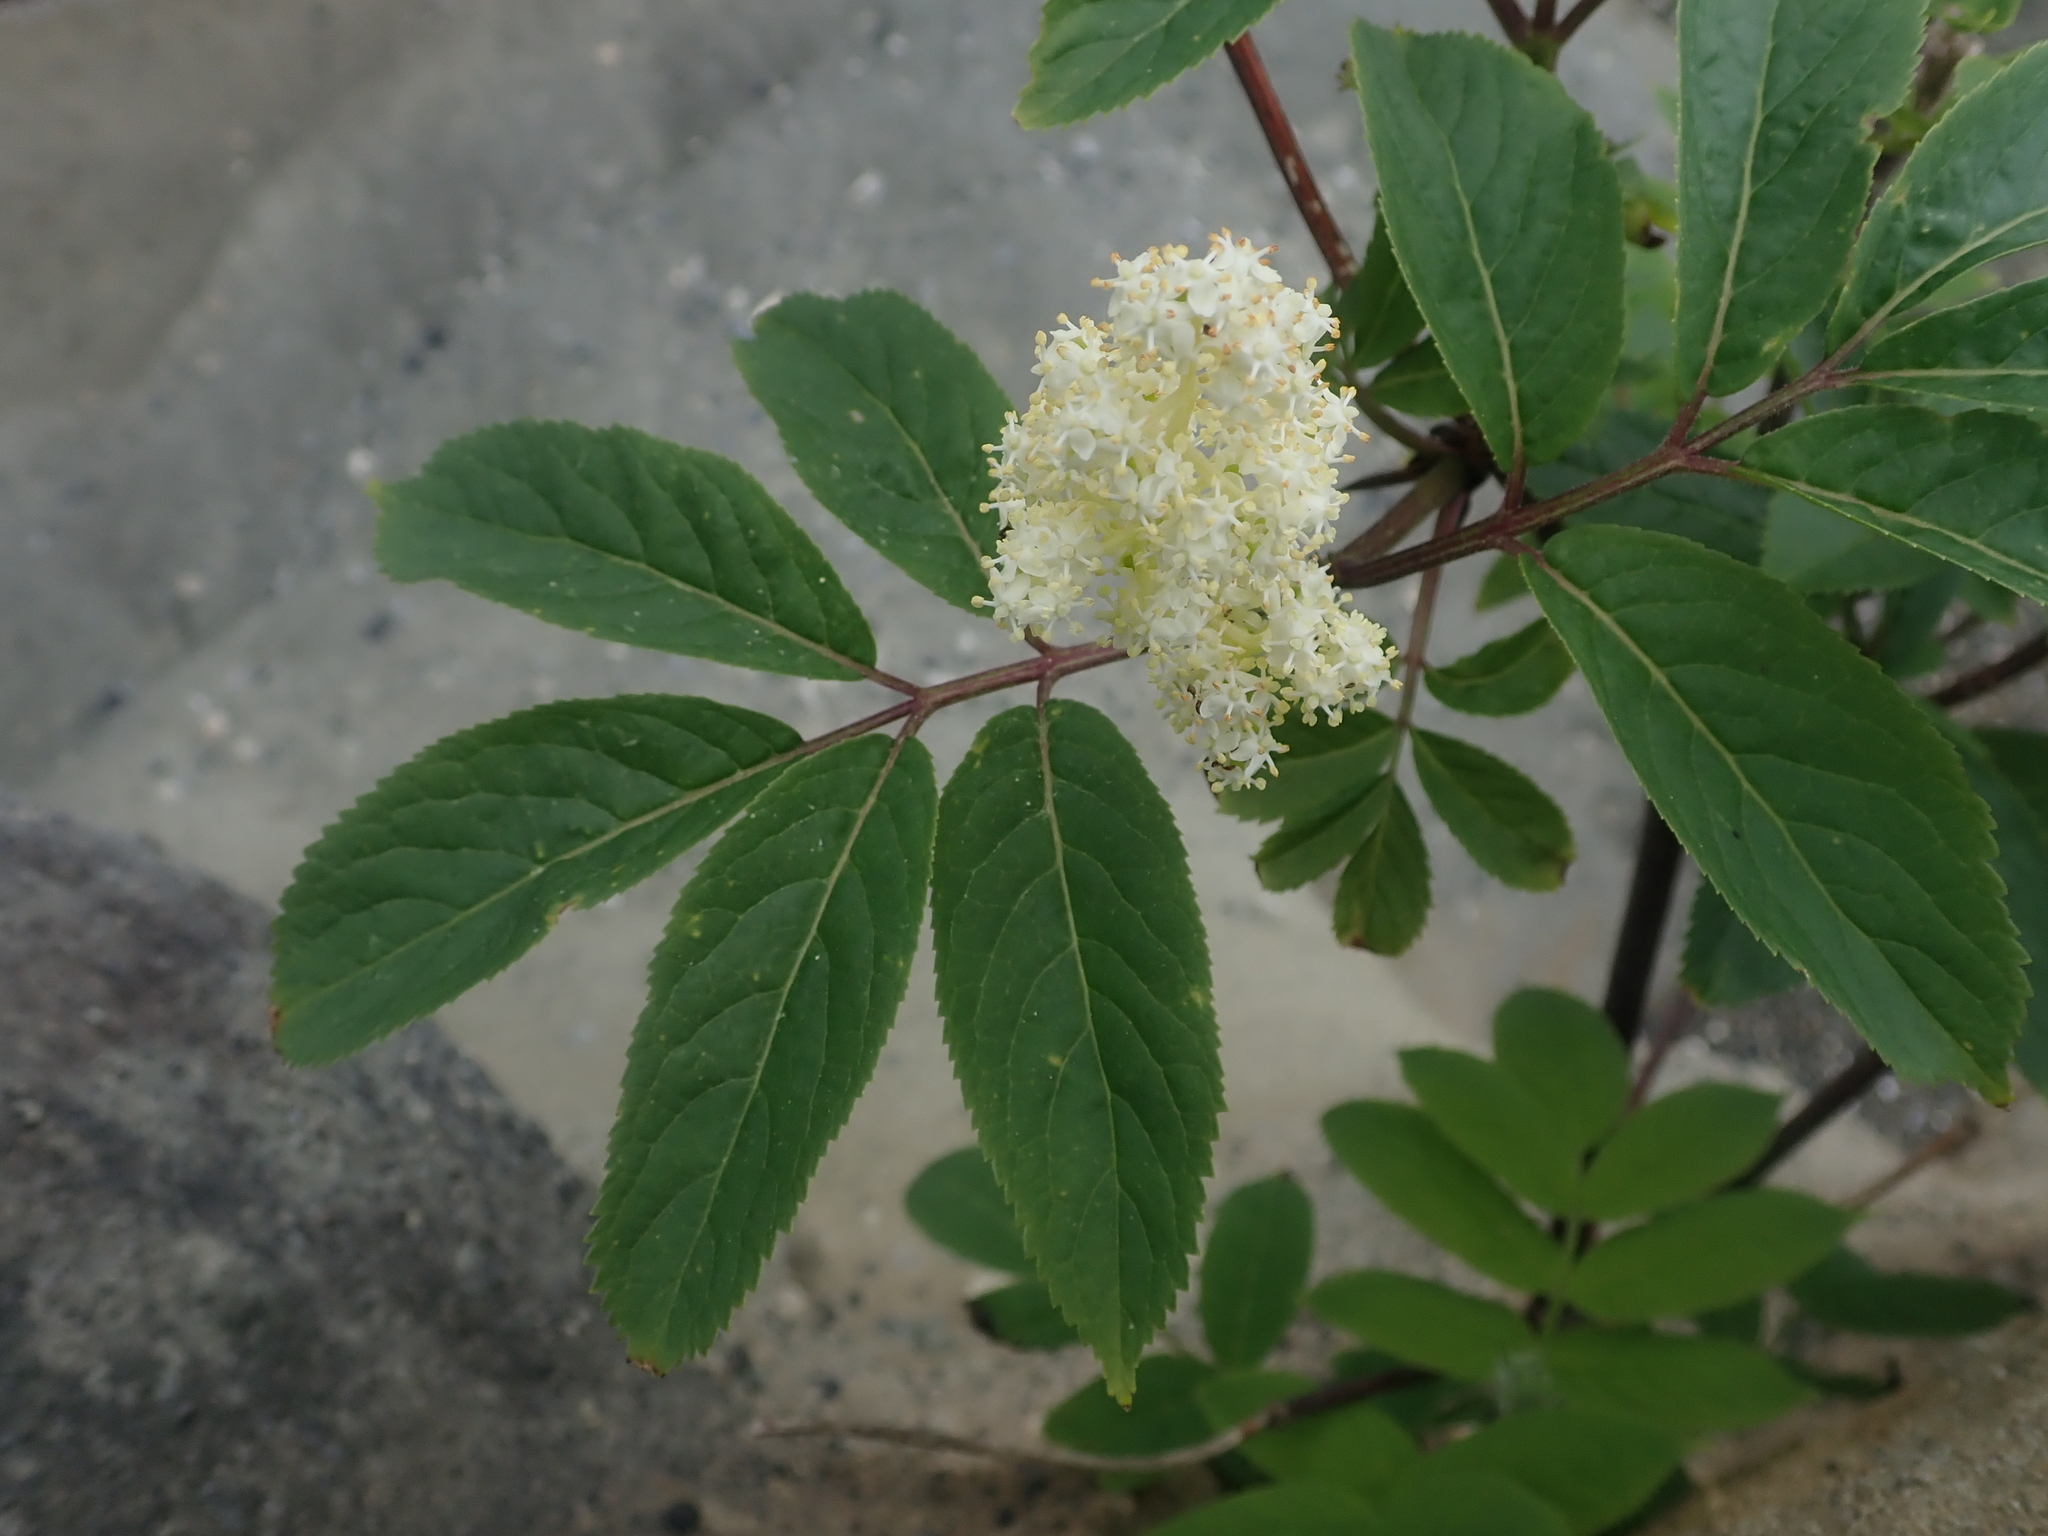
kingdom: Plantae
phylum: Tracheophyta
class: Magnoliopsida
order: Dipsacales
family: Viburnaceae
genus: Sambucus
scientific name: Sambucus racemosa
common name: Red-berried elder
